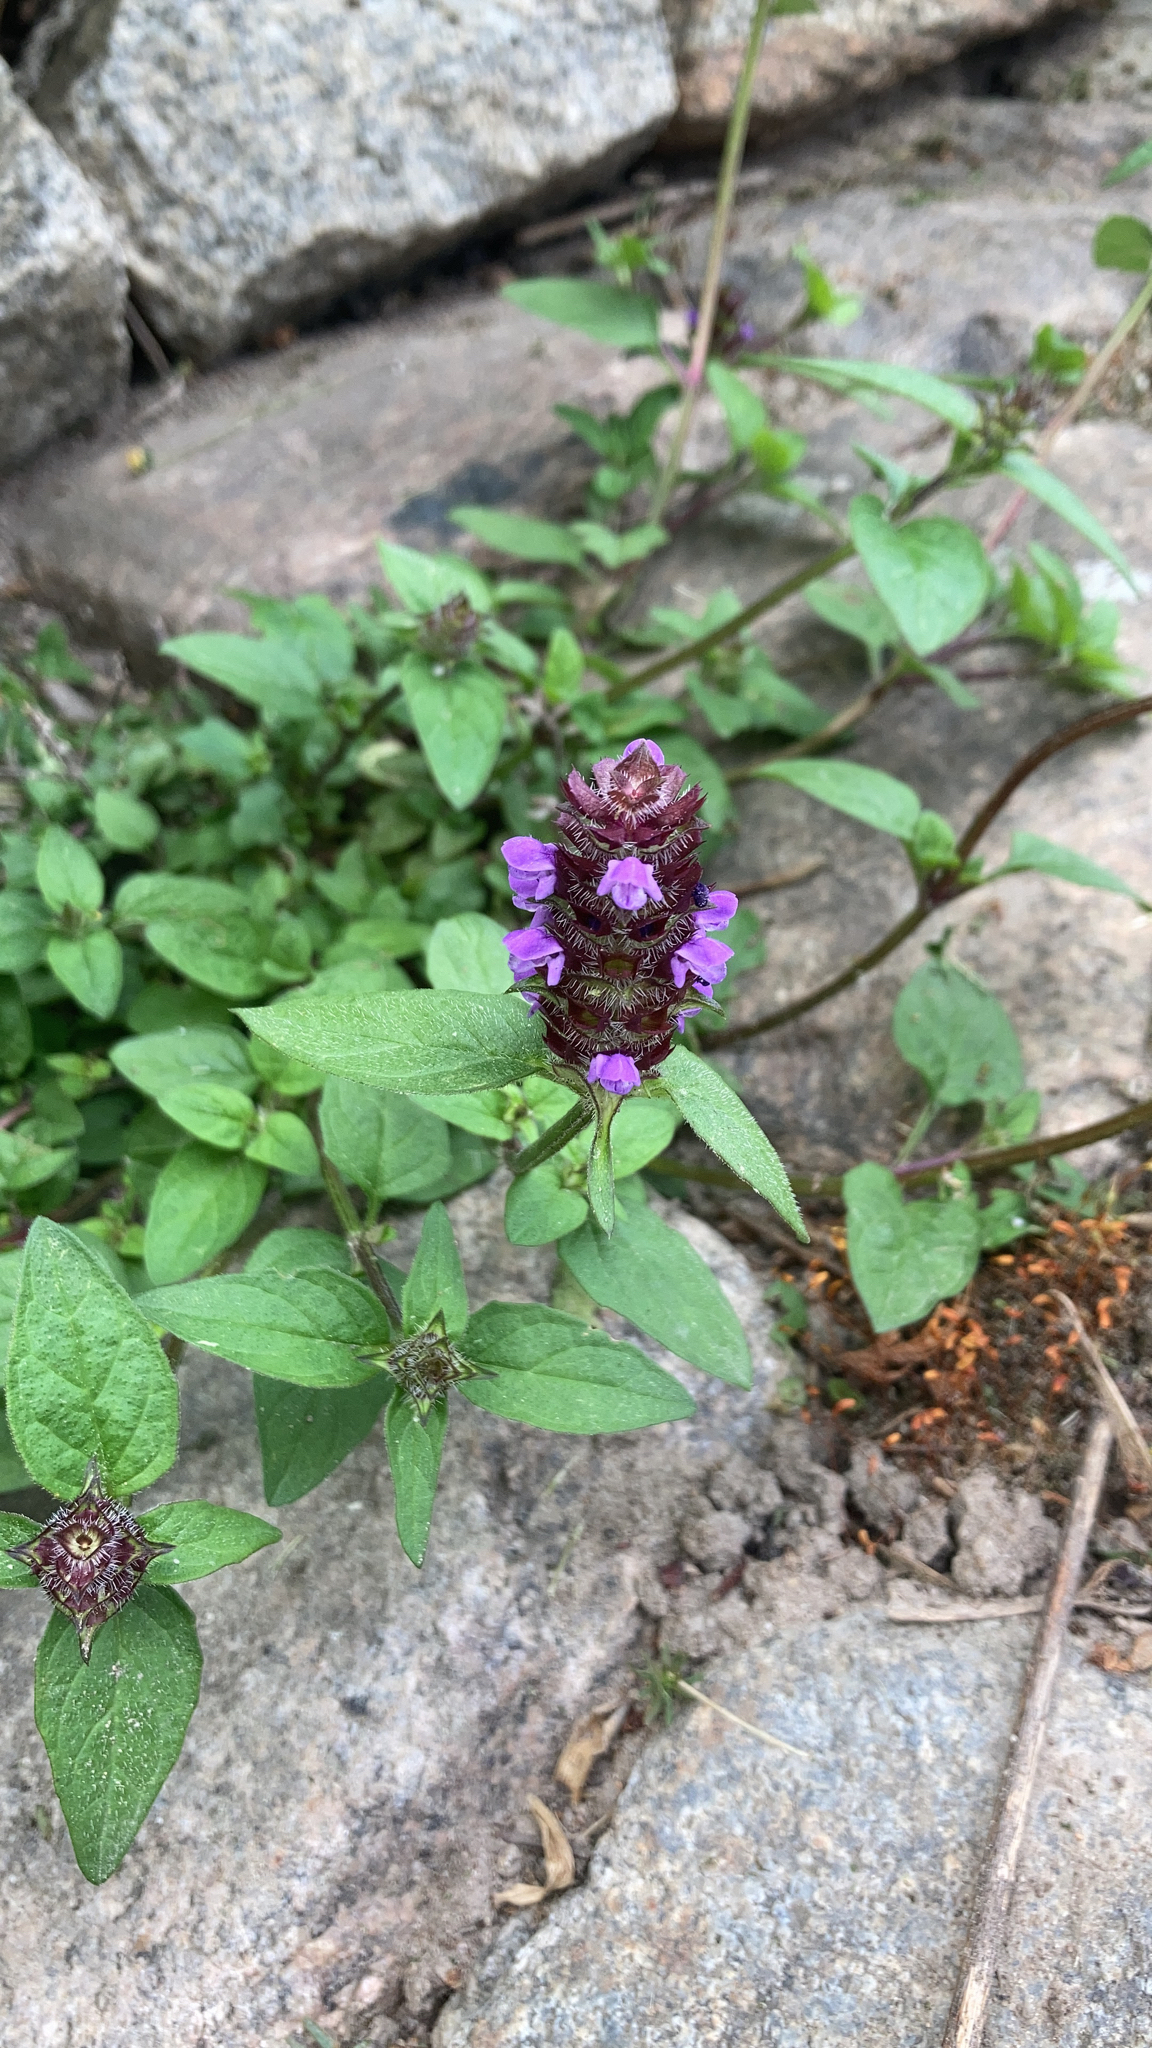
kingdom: Plantae
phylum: Tracheophyta
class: Magnoliopsida
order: Lamiales
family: Lamiaceae
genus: Prunella
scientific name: Prunella vulgaris
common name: Heal-all
